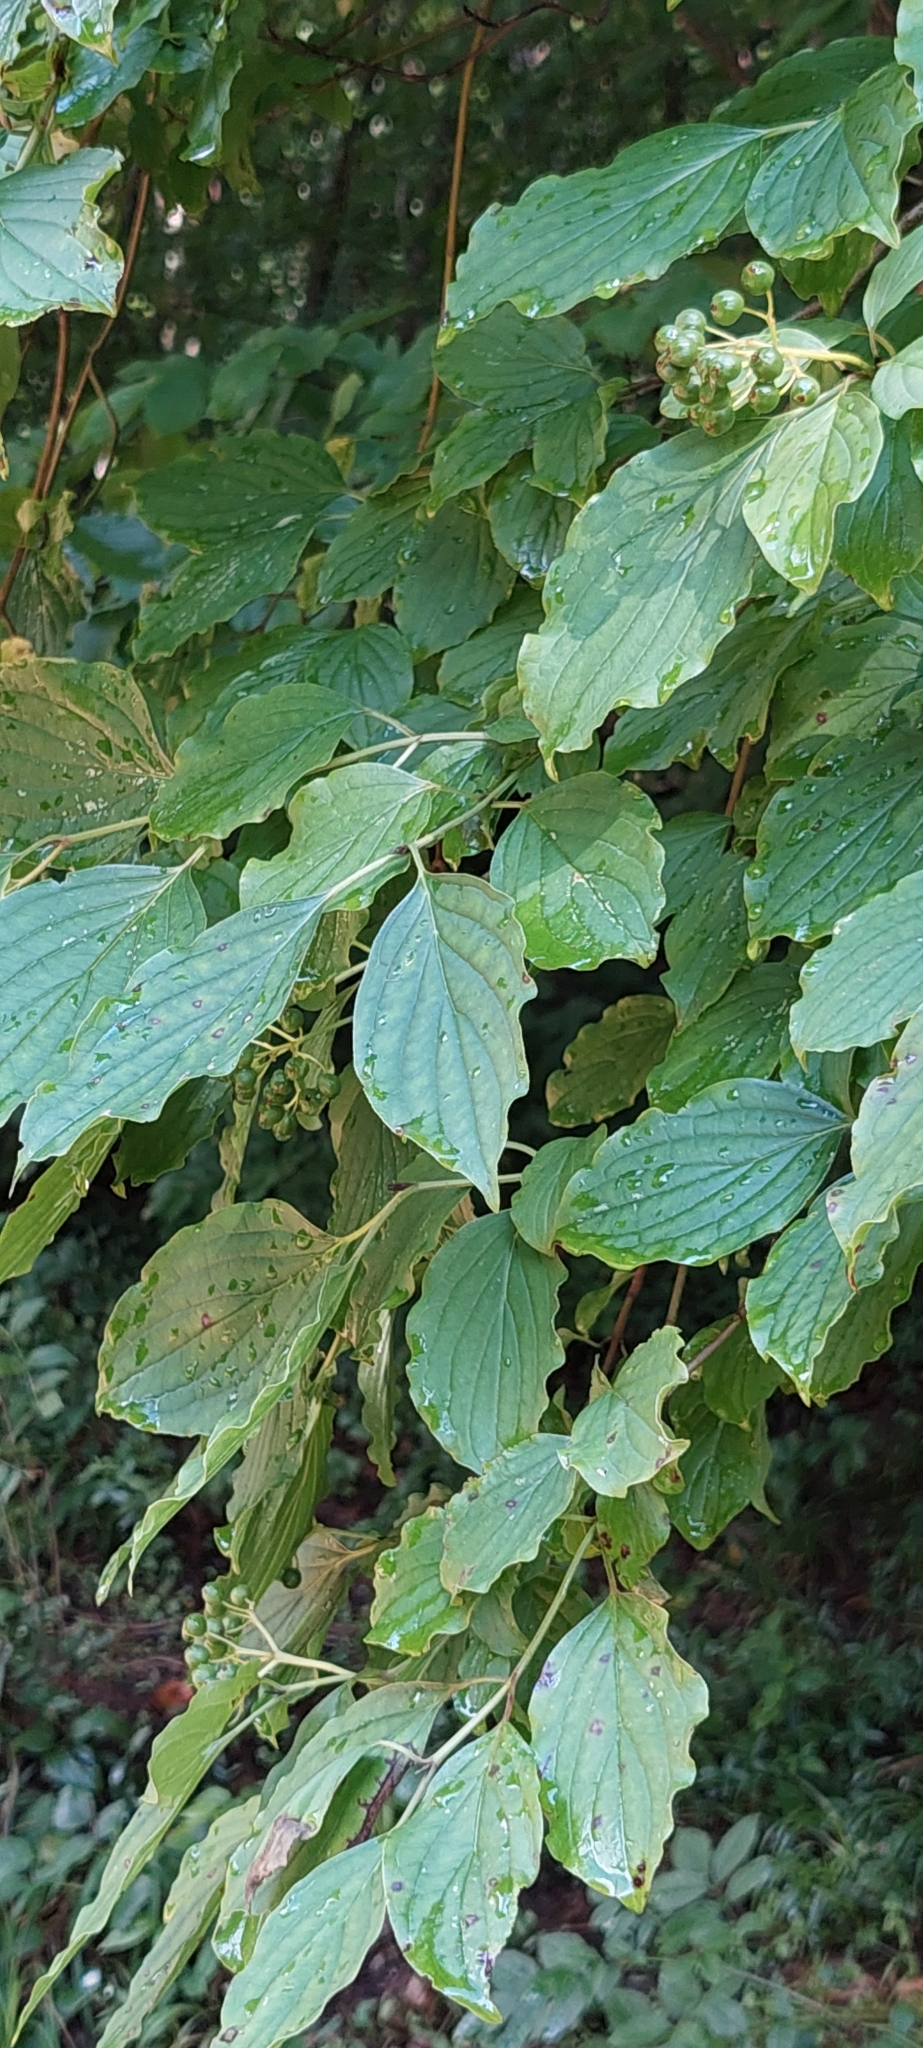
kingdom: Plantae
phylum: Tracheophyta
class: Magnoliopsida
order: Cornales
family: Cornaceae
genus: Cornus
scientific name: Cornus sanguinea
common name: Dogwood
